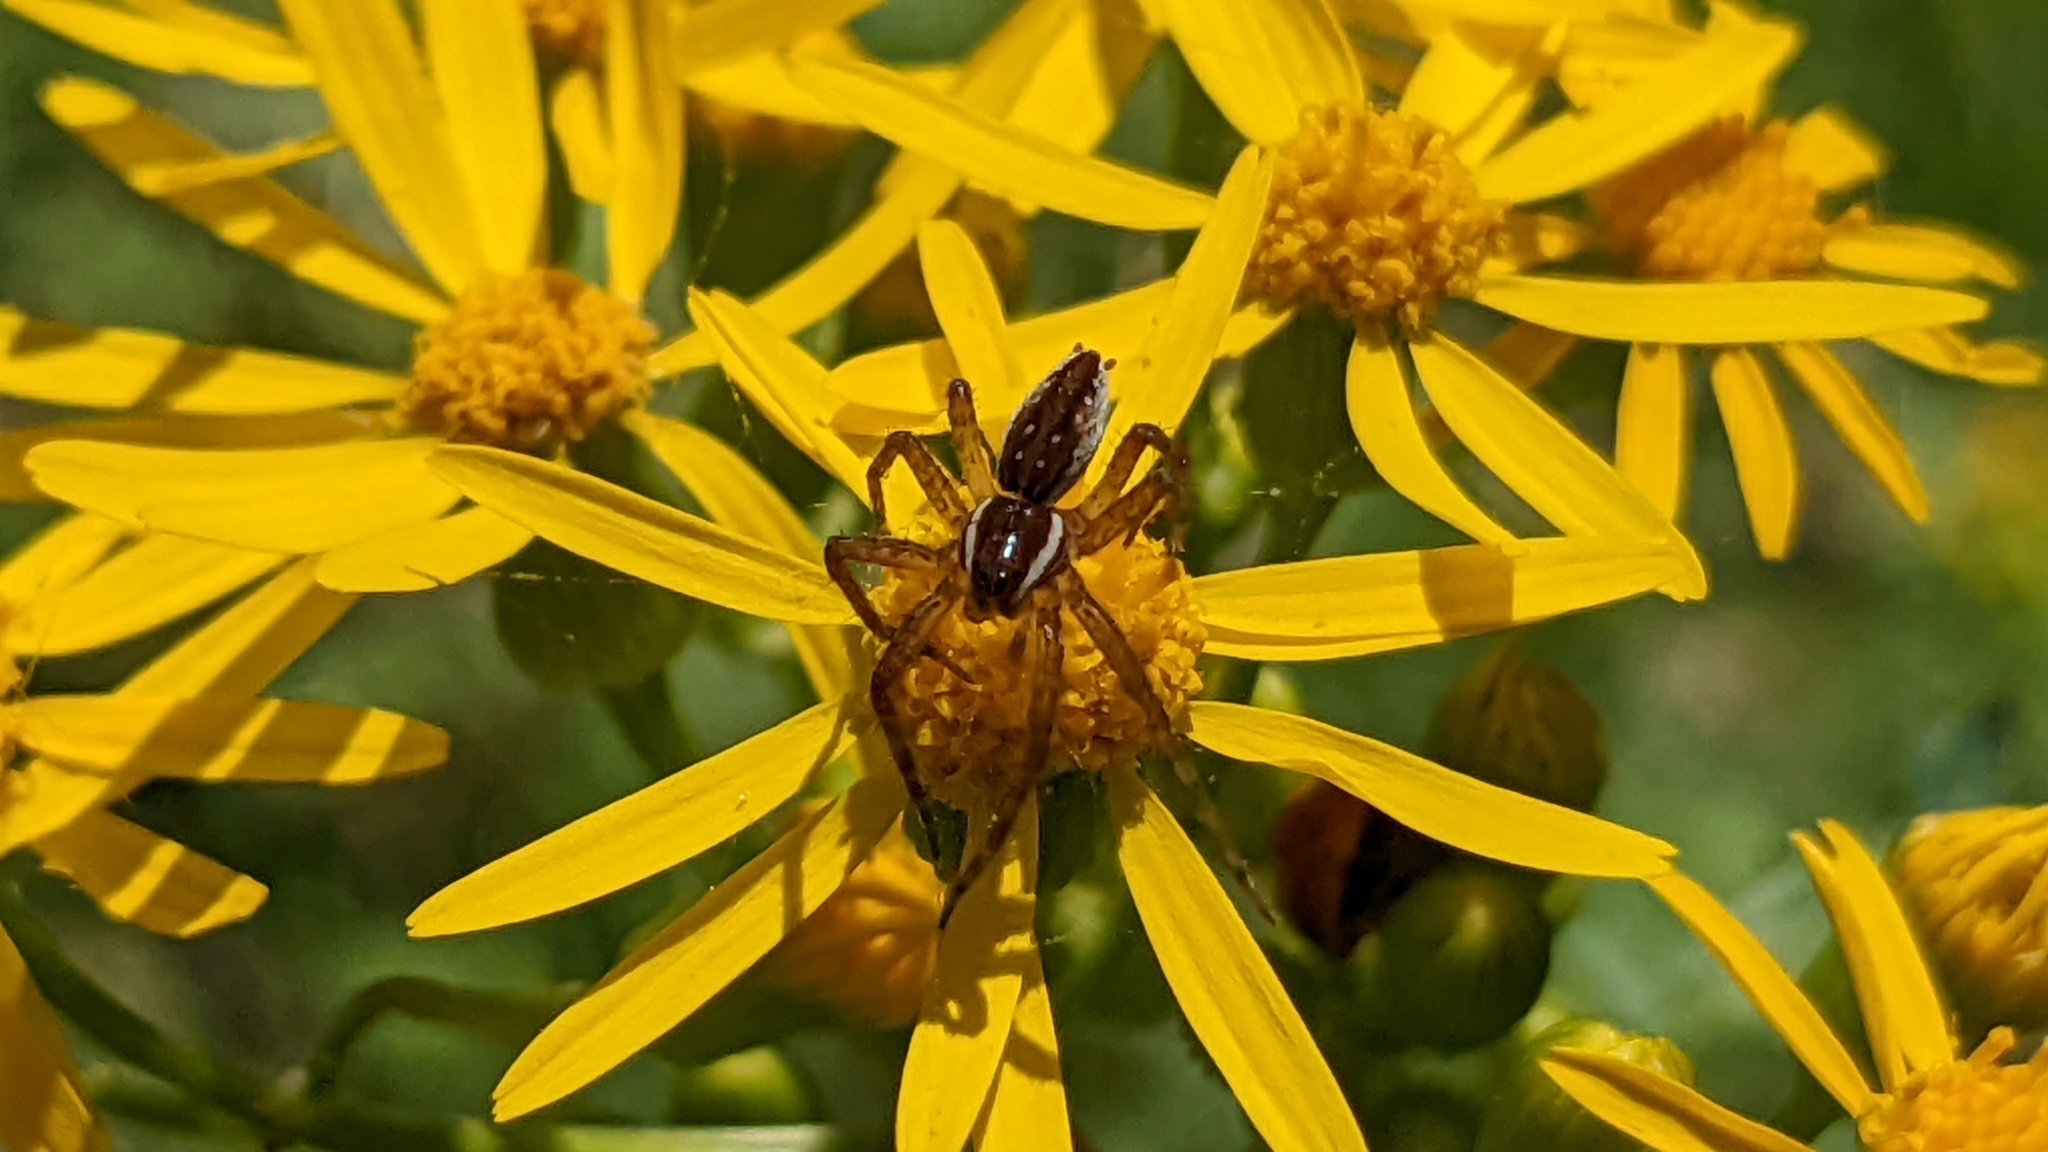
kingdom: Animalia
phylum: Arthropoda
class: Arachnida
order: Araneae
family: Pisauridae
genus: Dolomedes
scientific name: Dolomedes triton
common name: Six-spotted fishing spider
